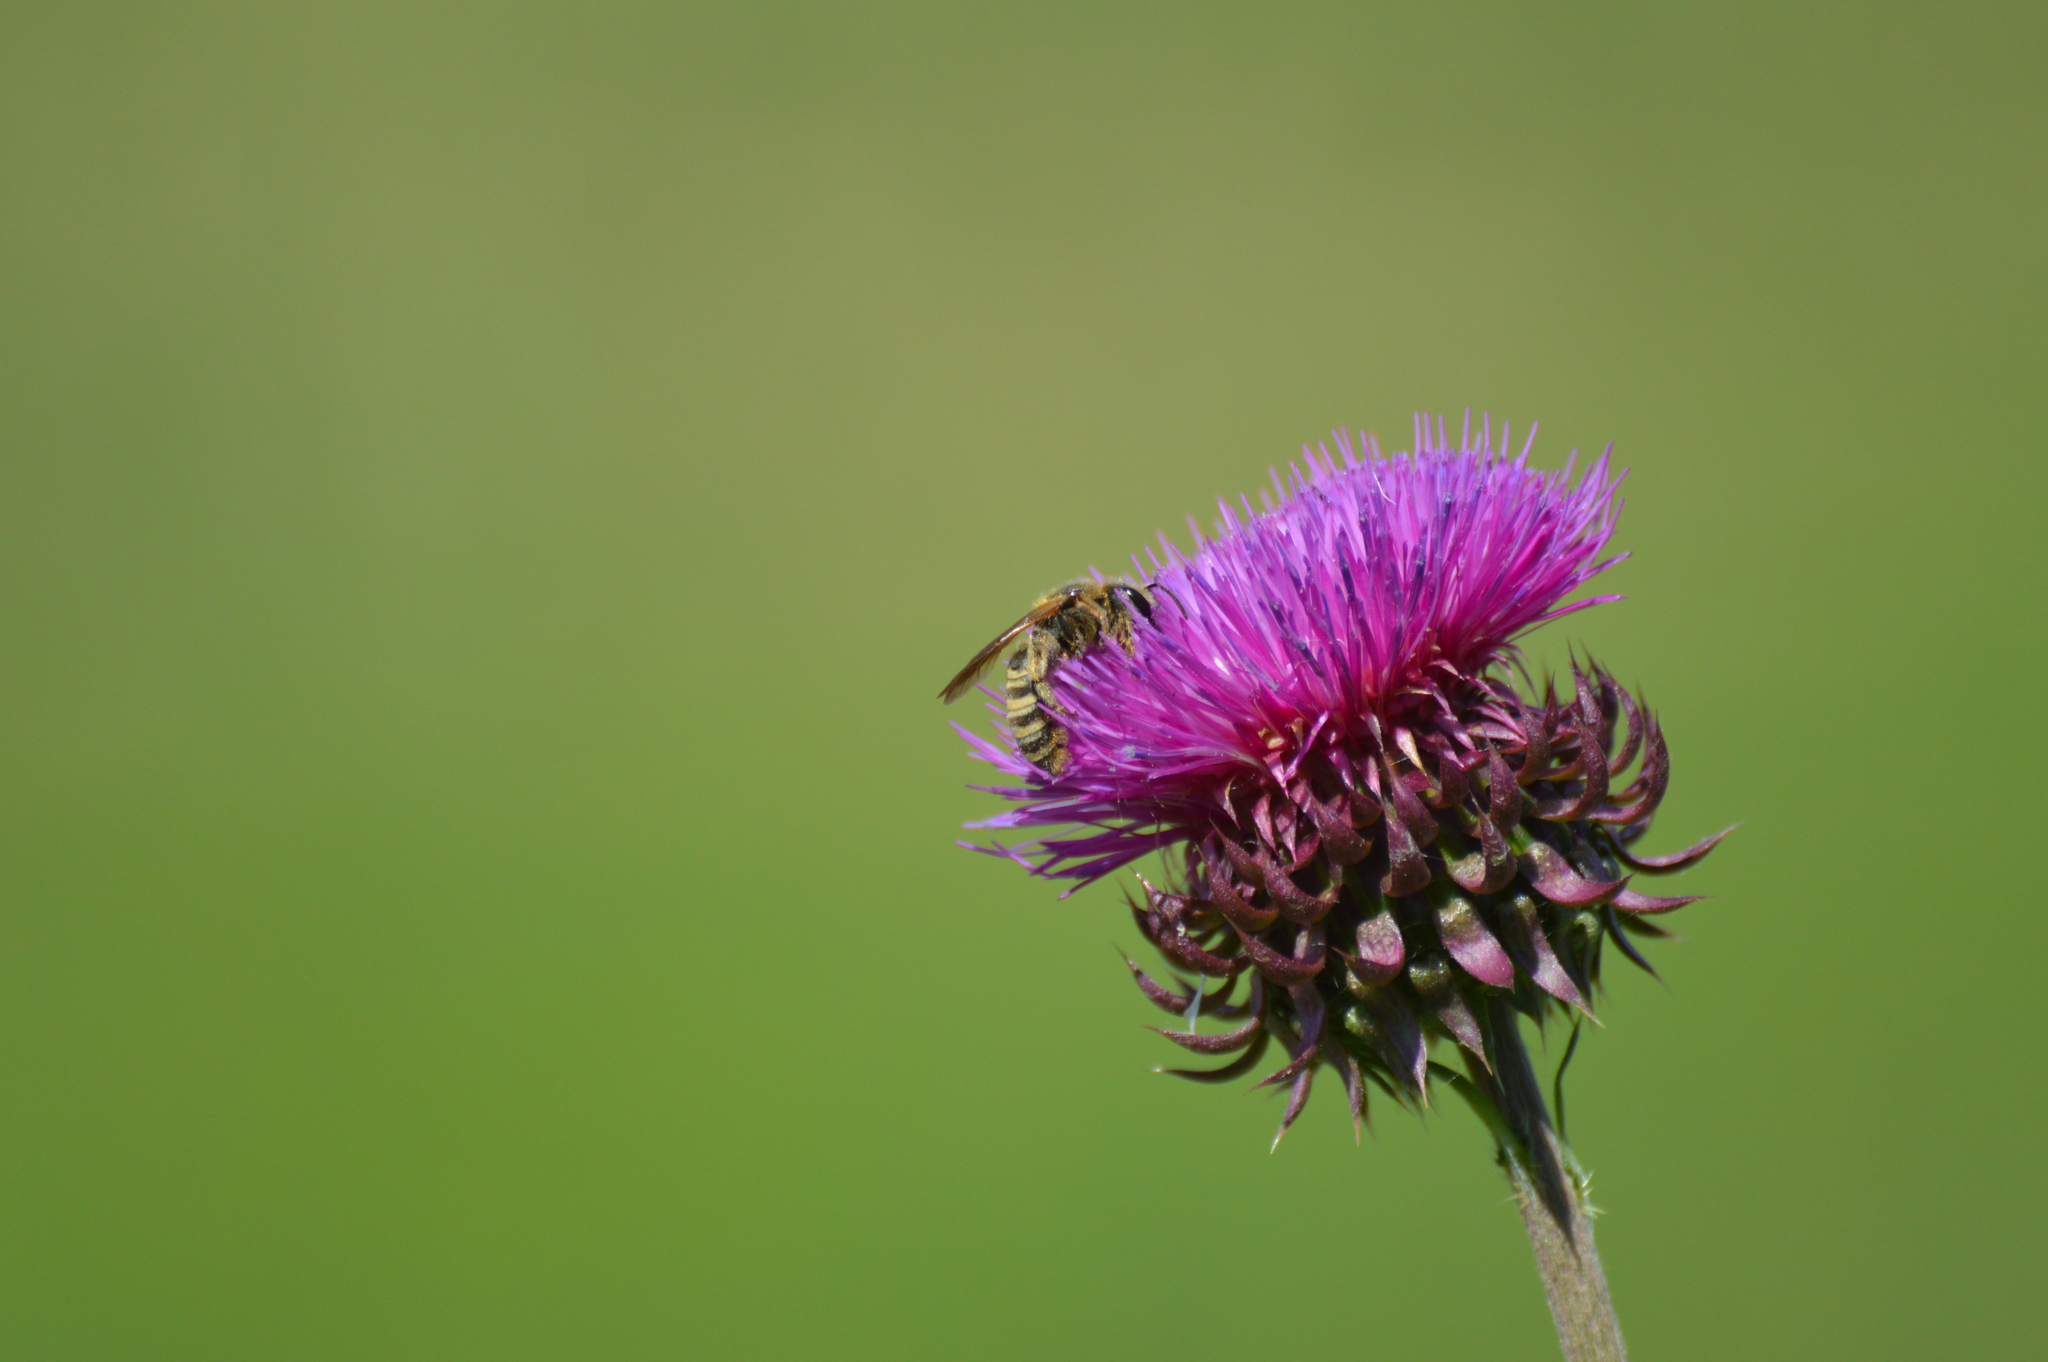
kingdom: Animalia
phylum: Arthropoda
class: Insecta
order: Hymenoptera
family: Halictidae
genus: Halictus
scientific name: Halictus scabiosae
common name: Great banded furrow bee
